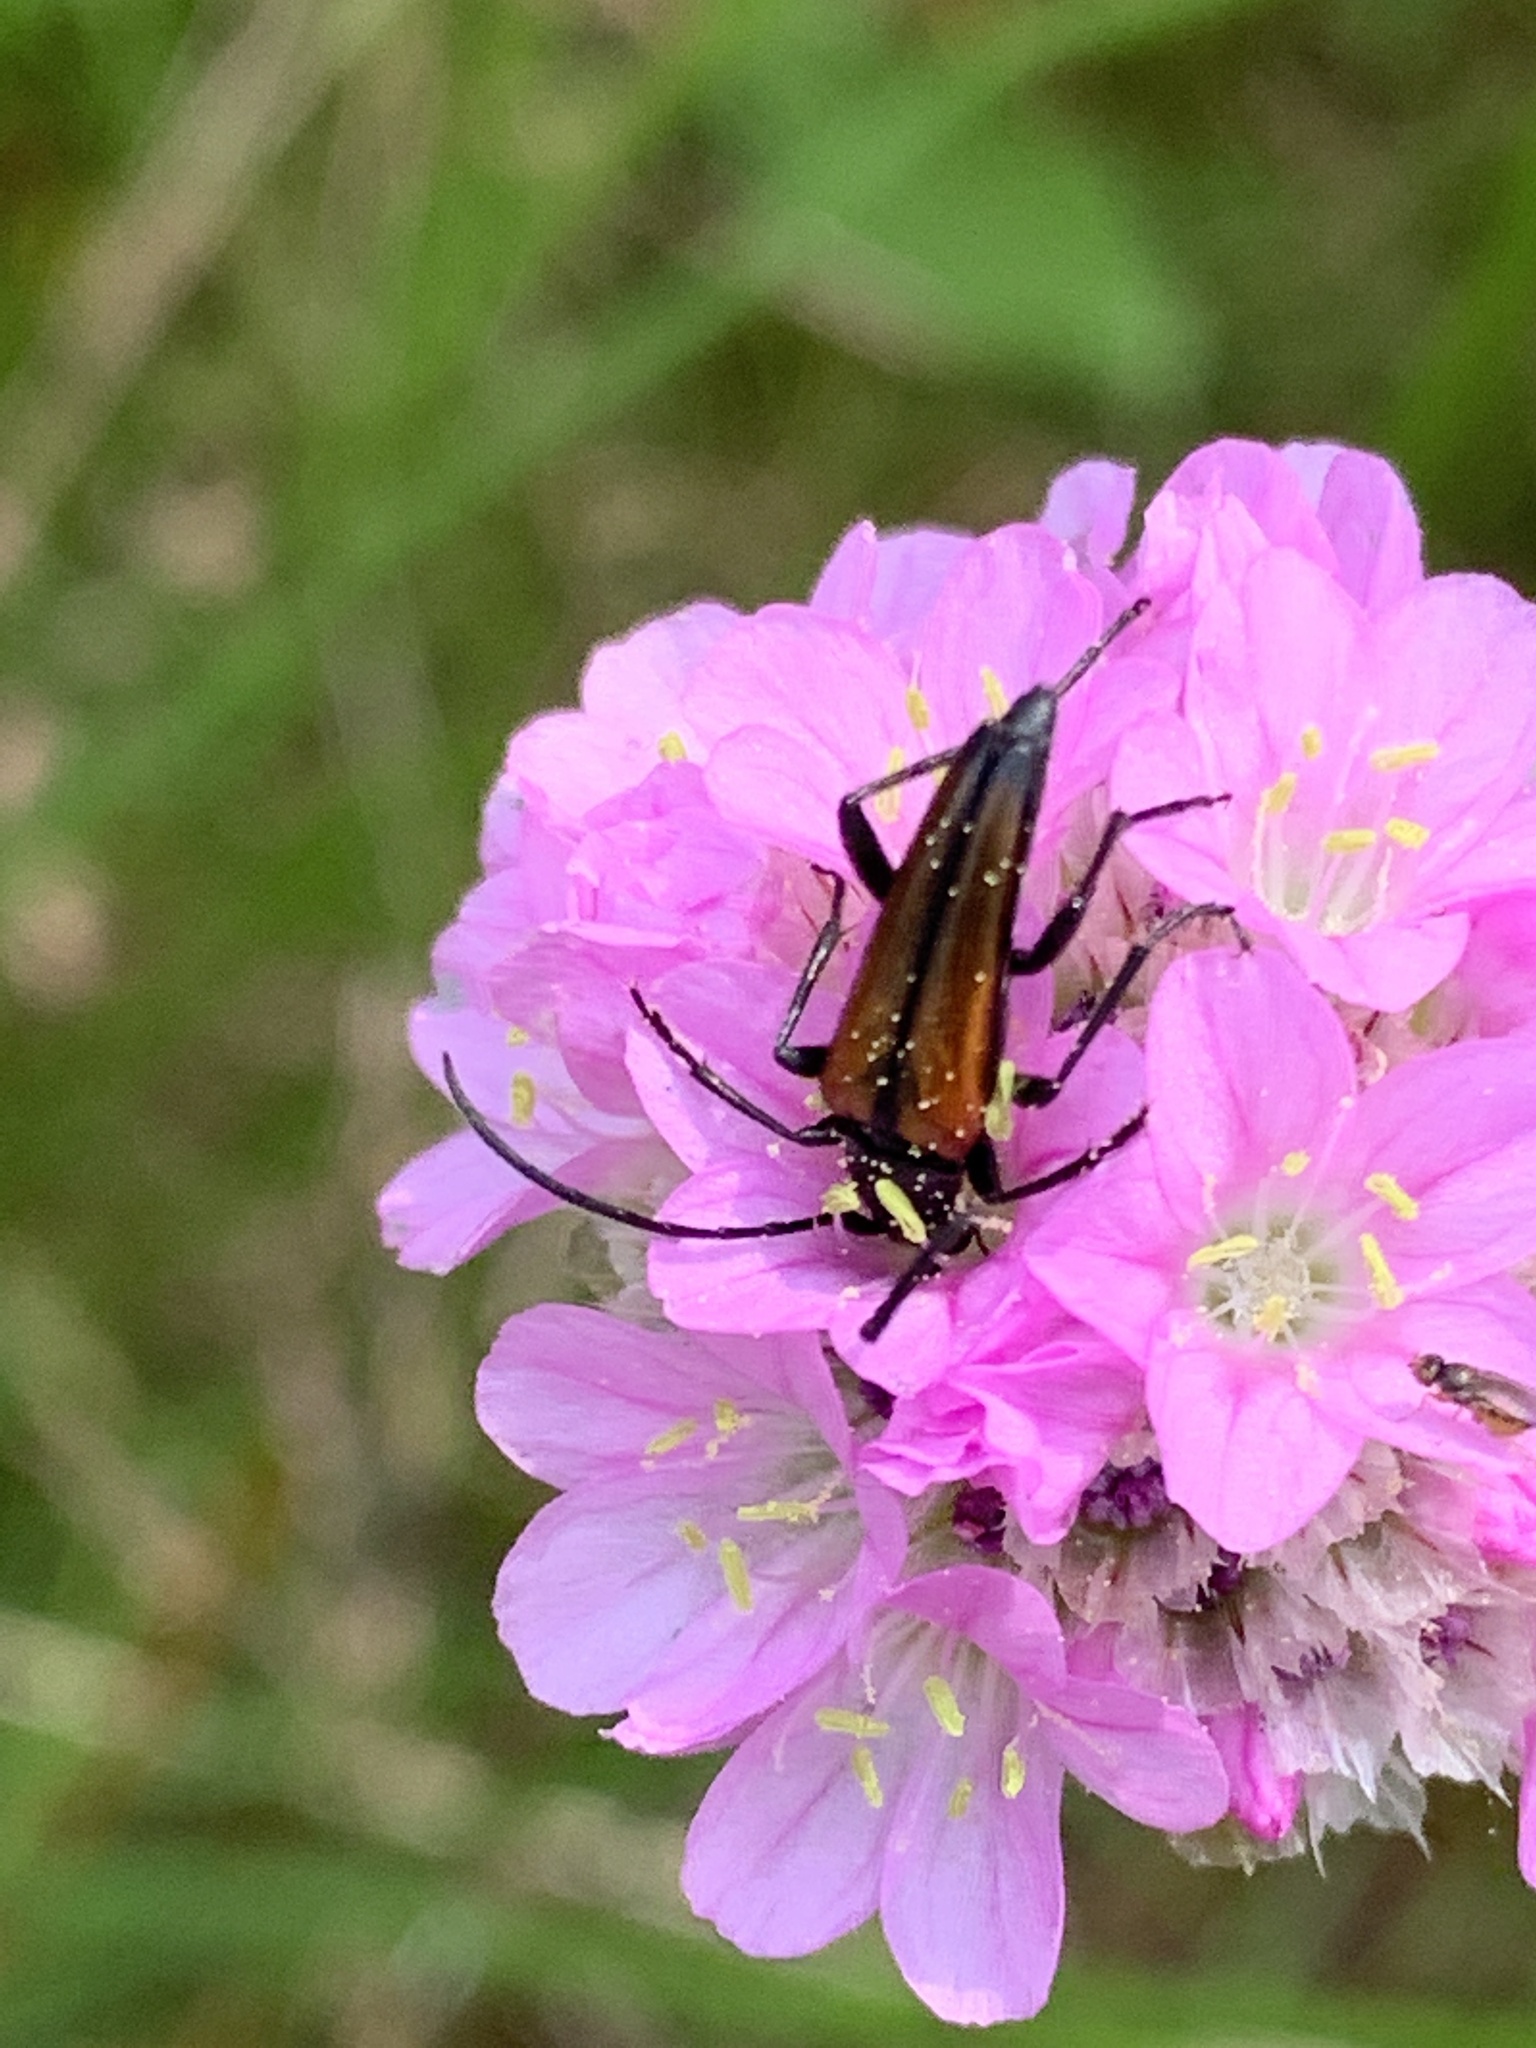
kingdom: Animalia
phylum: Arthropoda
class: Insecta
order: Coleoptera
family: Cerambycidae
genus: Stenurella
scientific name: Stenurella melanura
